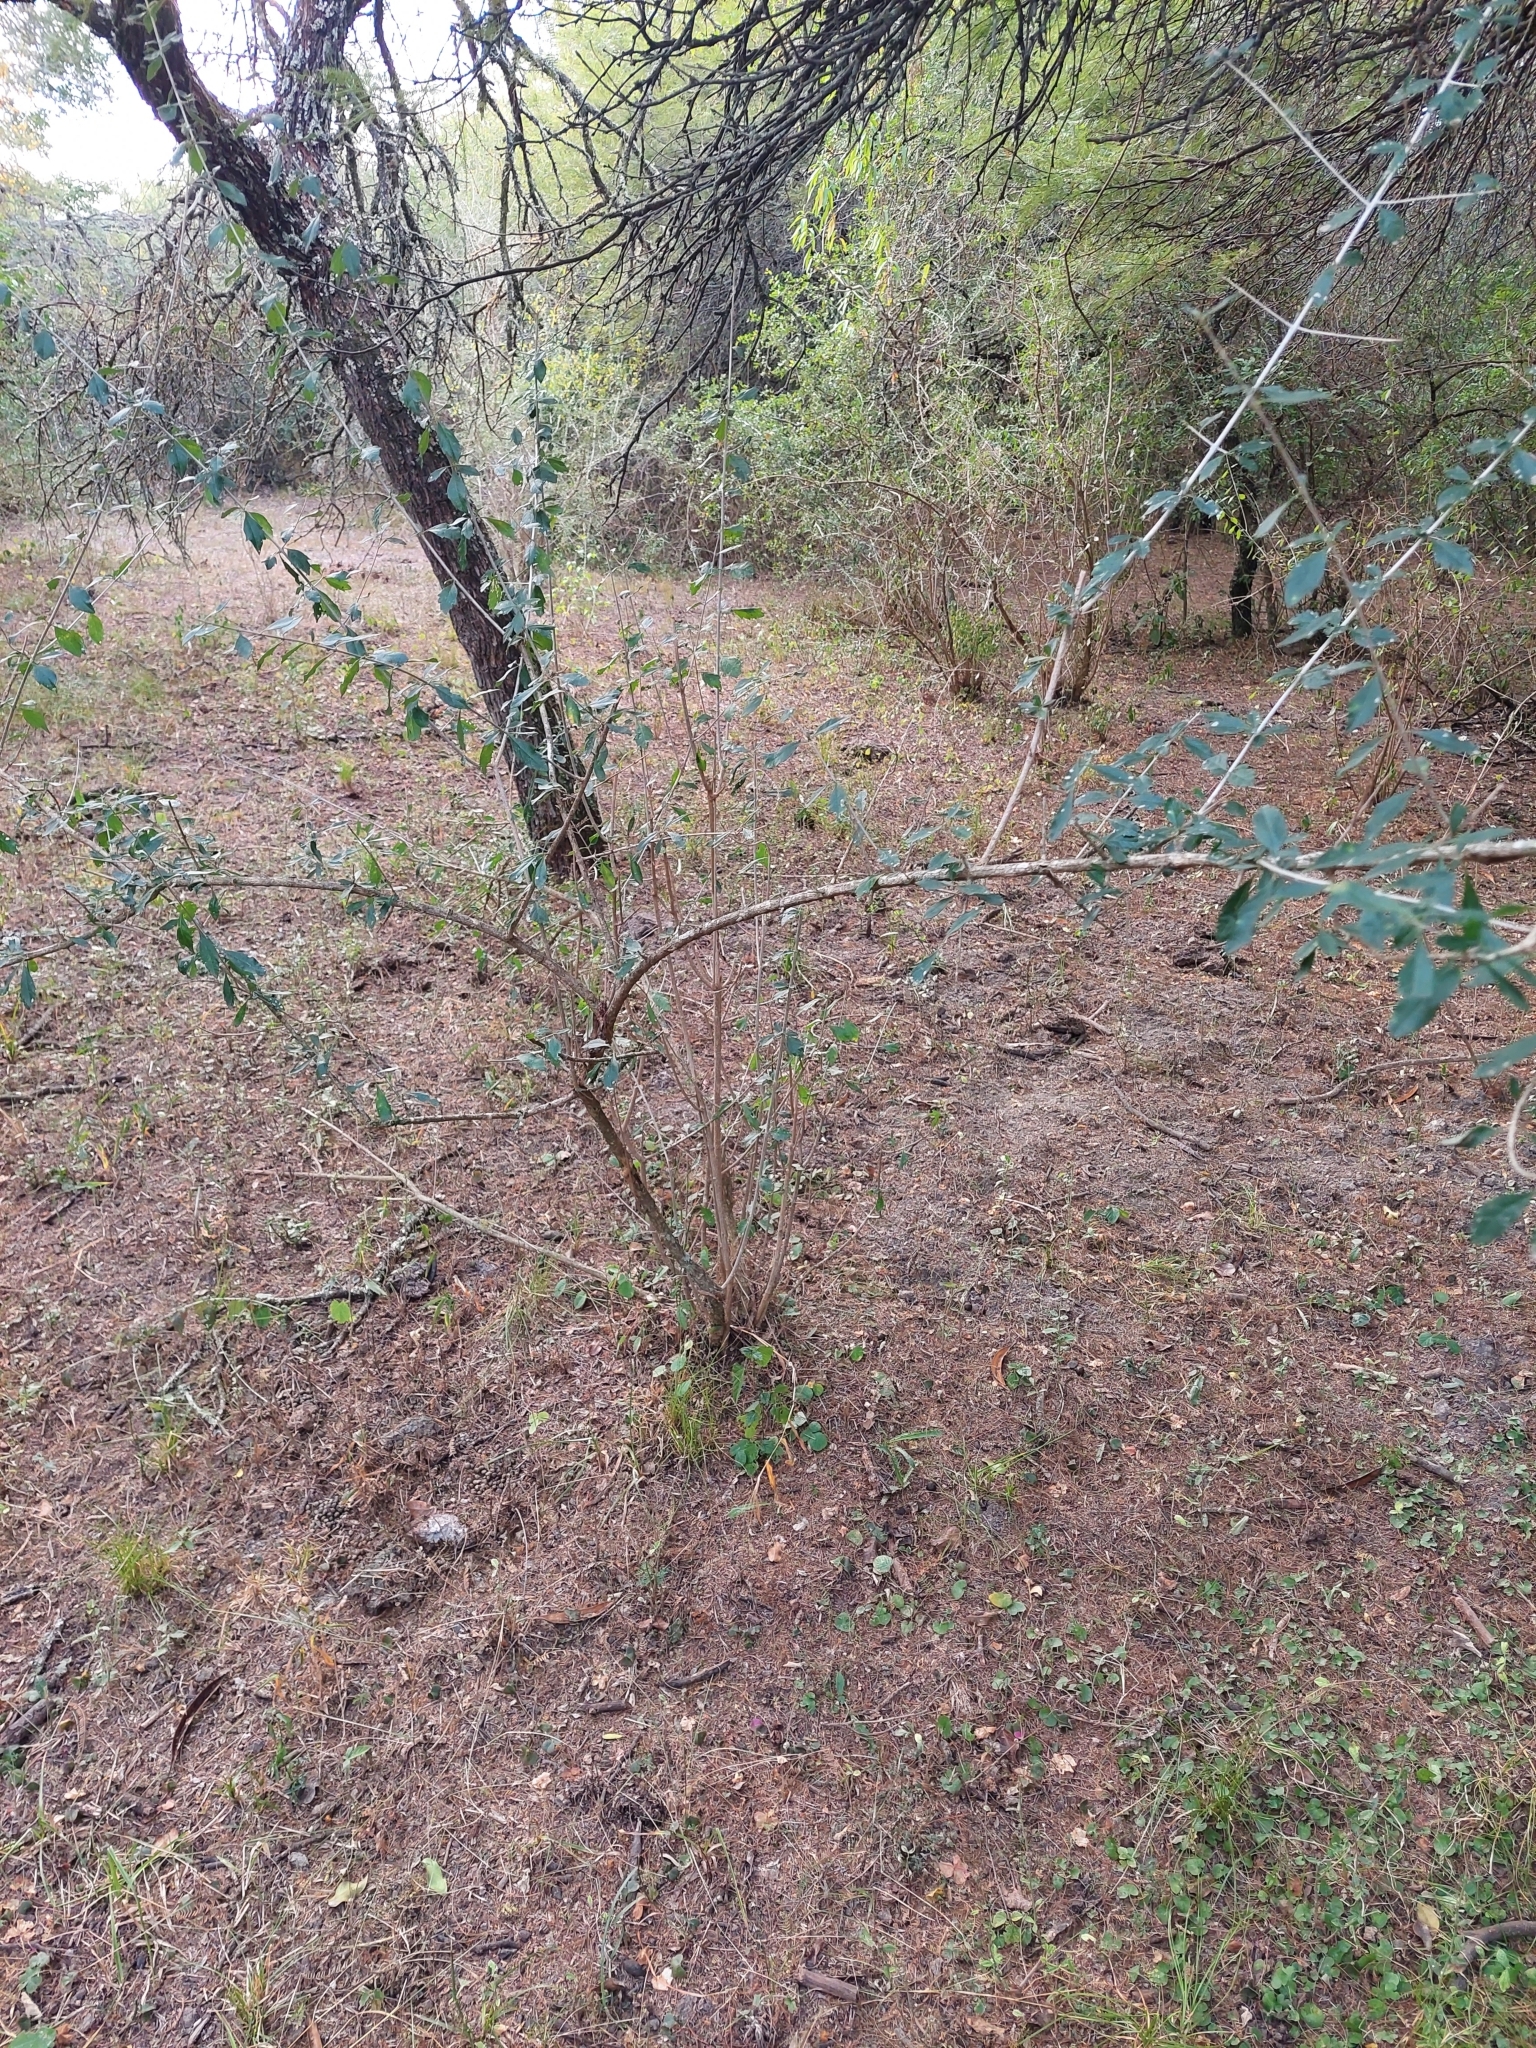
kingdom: Plantae
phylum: Tracheophyta
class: Magnoliopsida
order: Lamiales
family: Verbenaceae
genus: Aloysia
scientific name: Aloysia gratissima
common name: Common bee-brush
